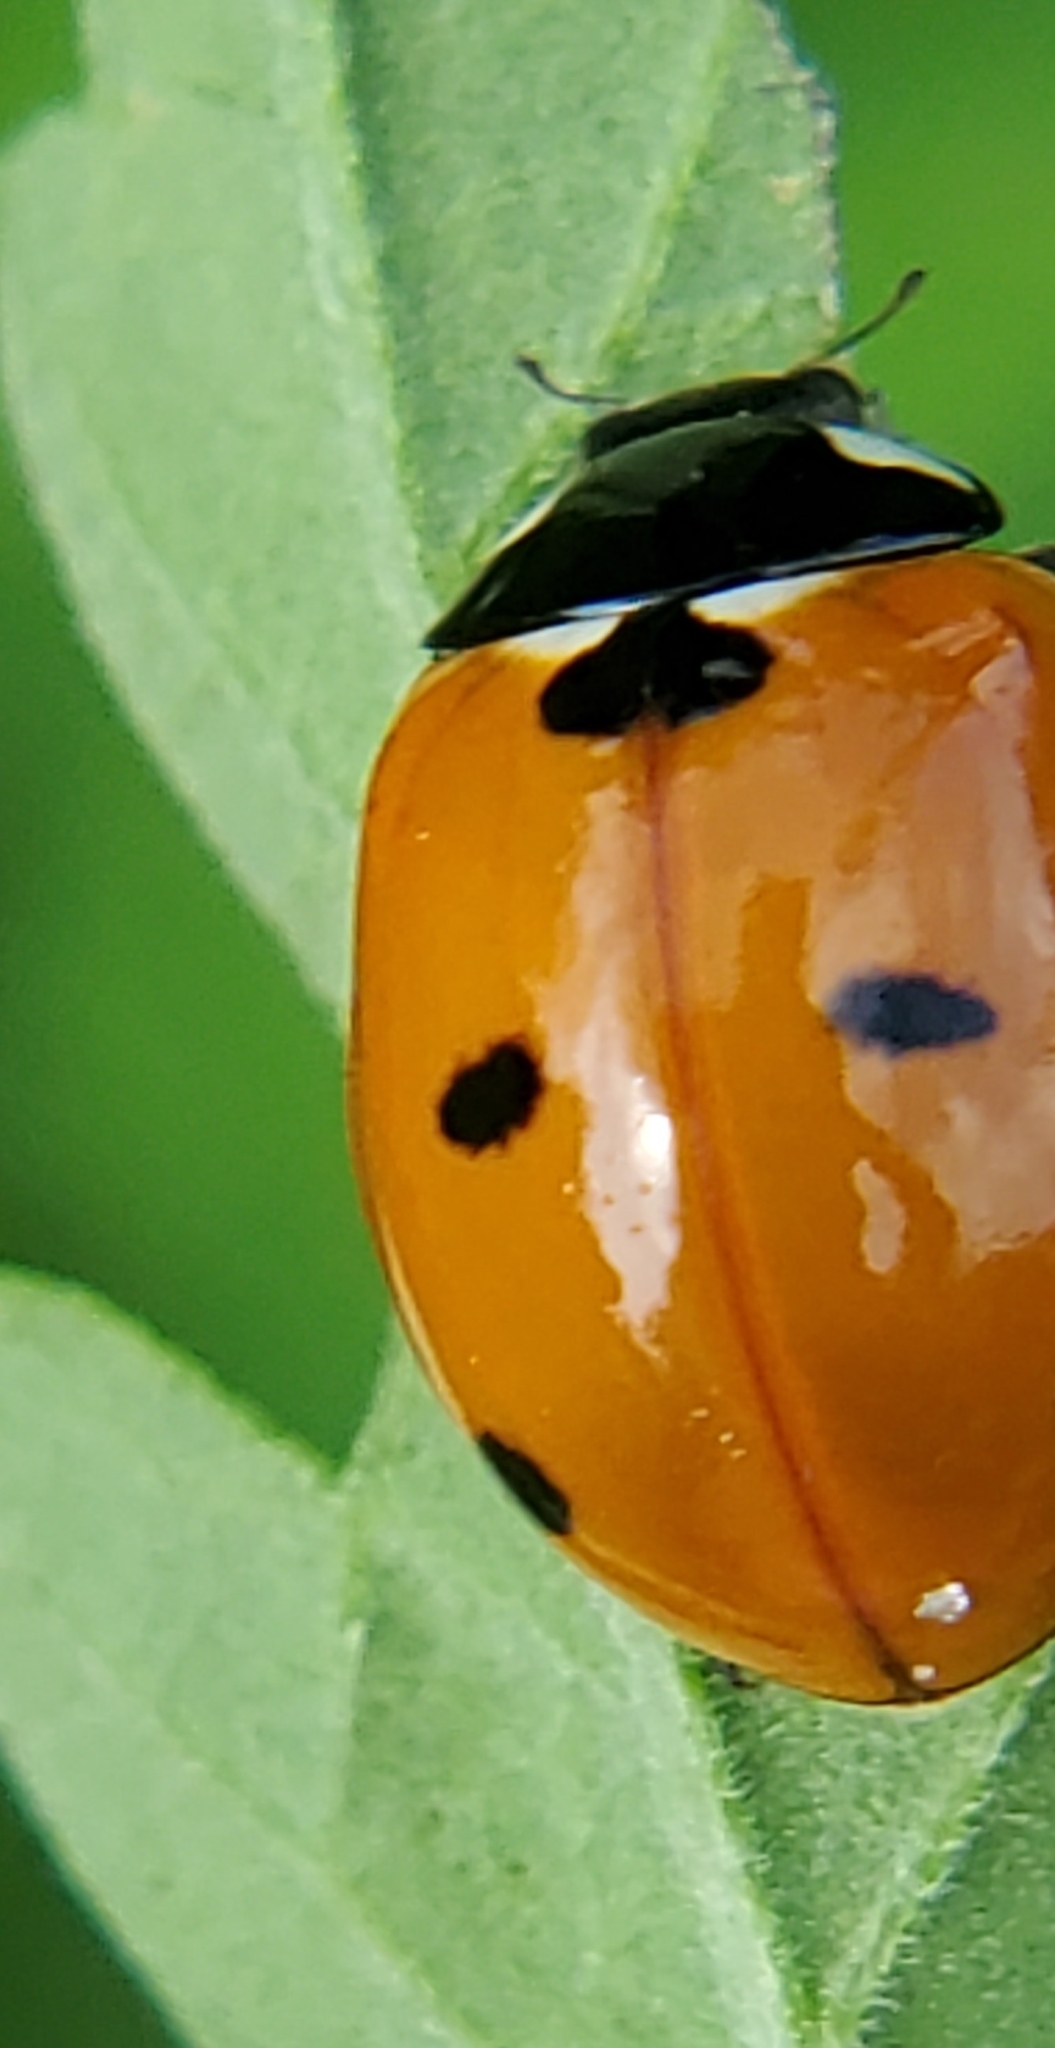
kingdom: Animalia
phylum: Arthropoda
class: Insecta
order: Coleoptera
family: Coccinellidae
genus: Coccinella
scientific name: Coccinella septempunctata
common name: Sevenspotted lady beetle
